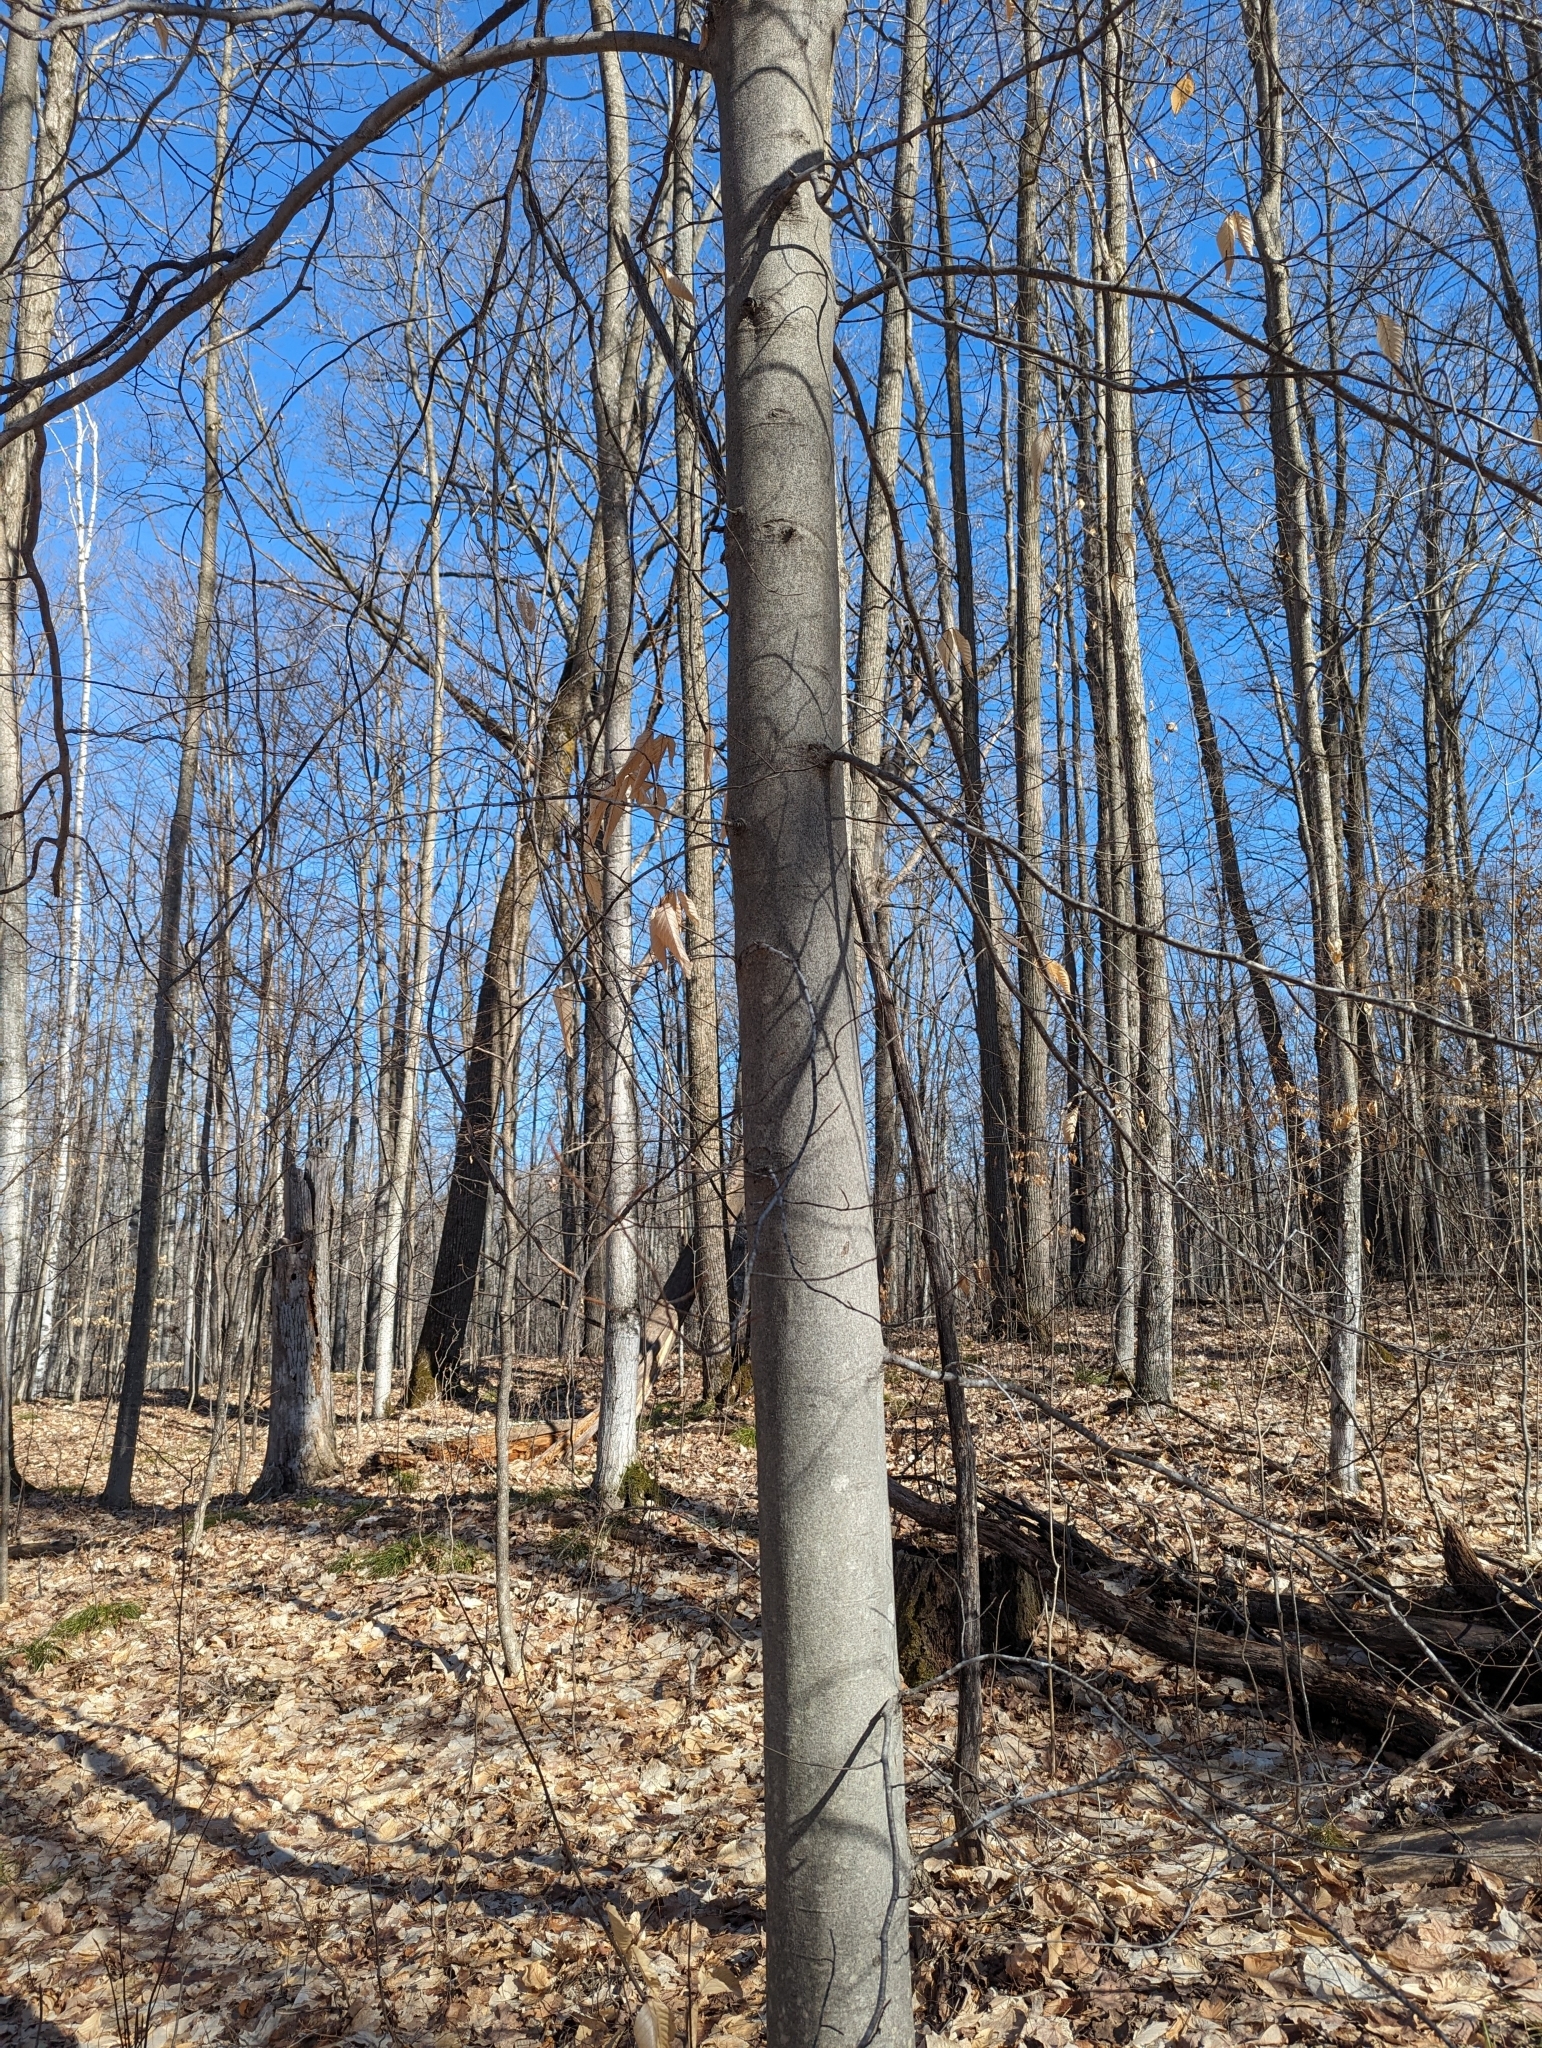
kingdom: Plantae
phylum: Tracheophyta
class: Magnoliopsida
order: Fagales
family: Fagaceae
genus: Fagus
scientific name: Fagus grandifolia
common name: American beech
